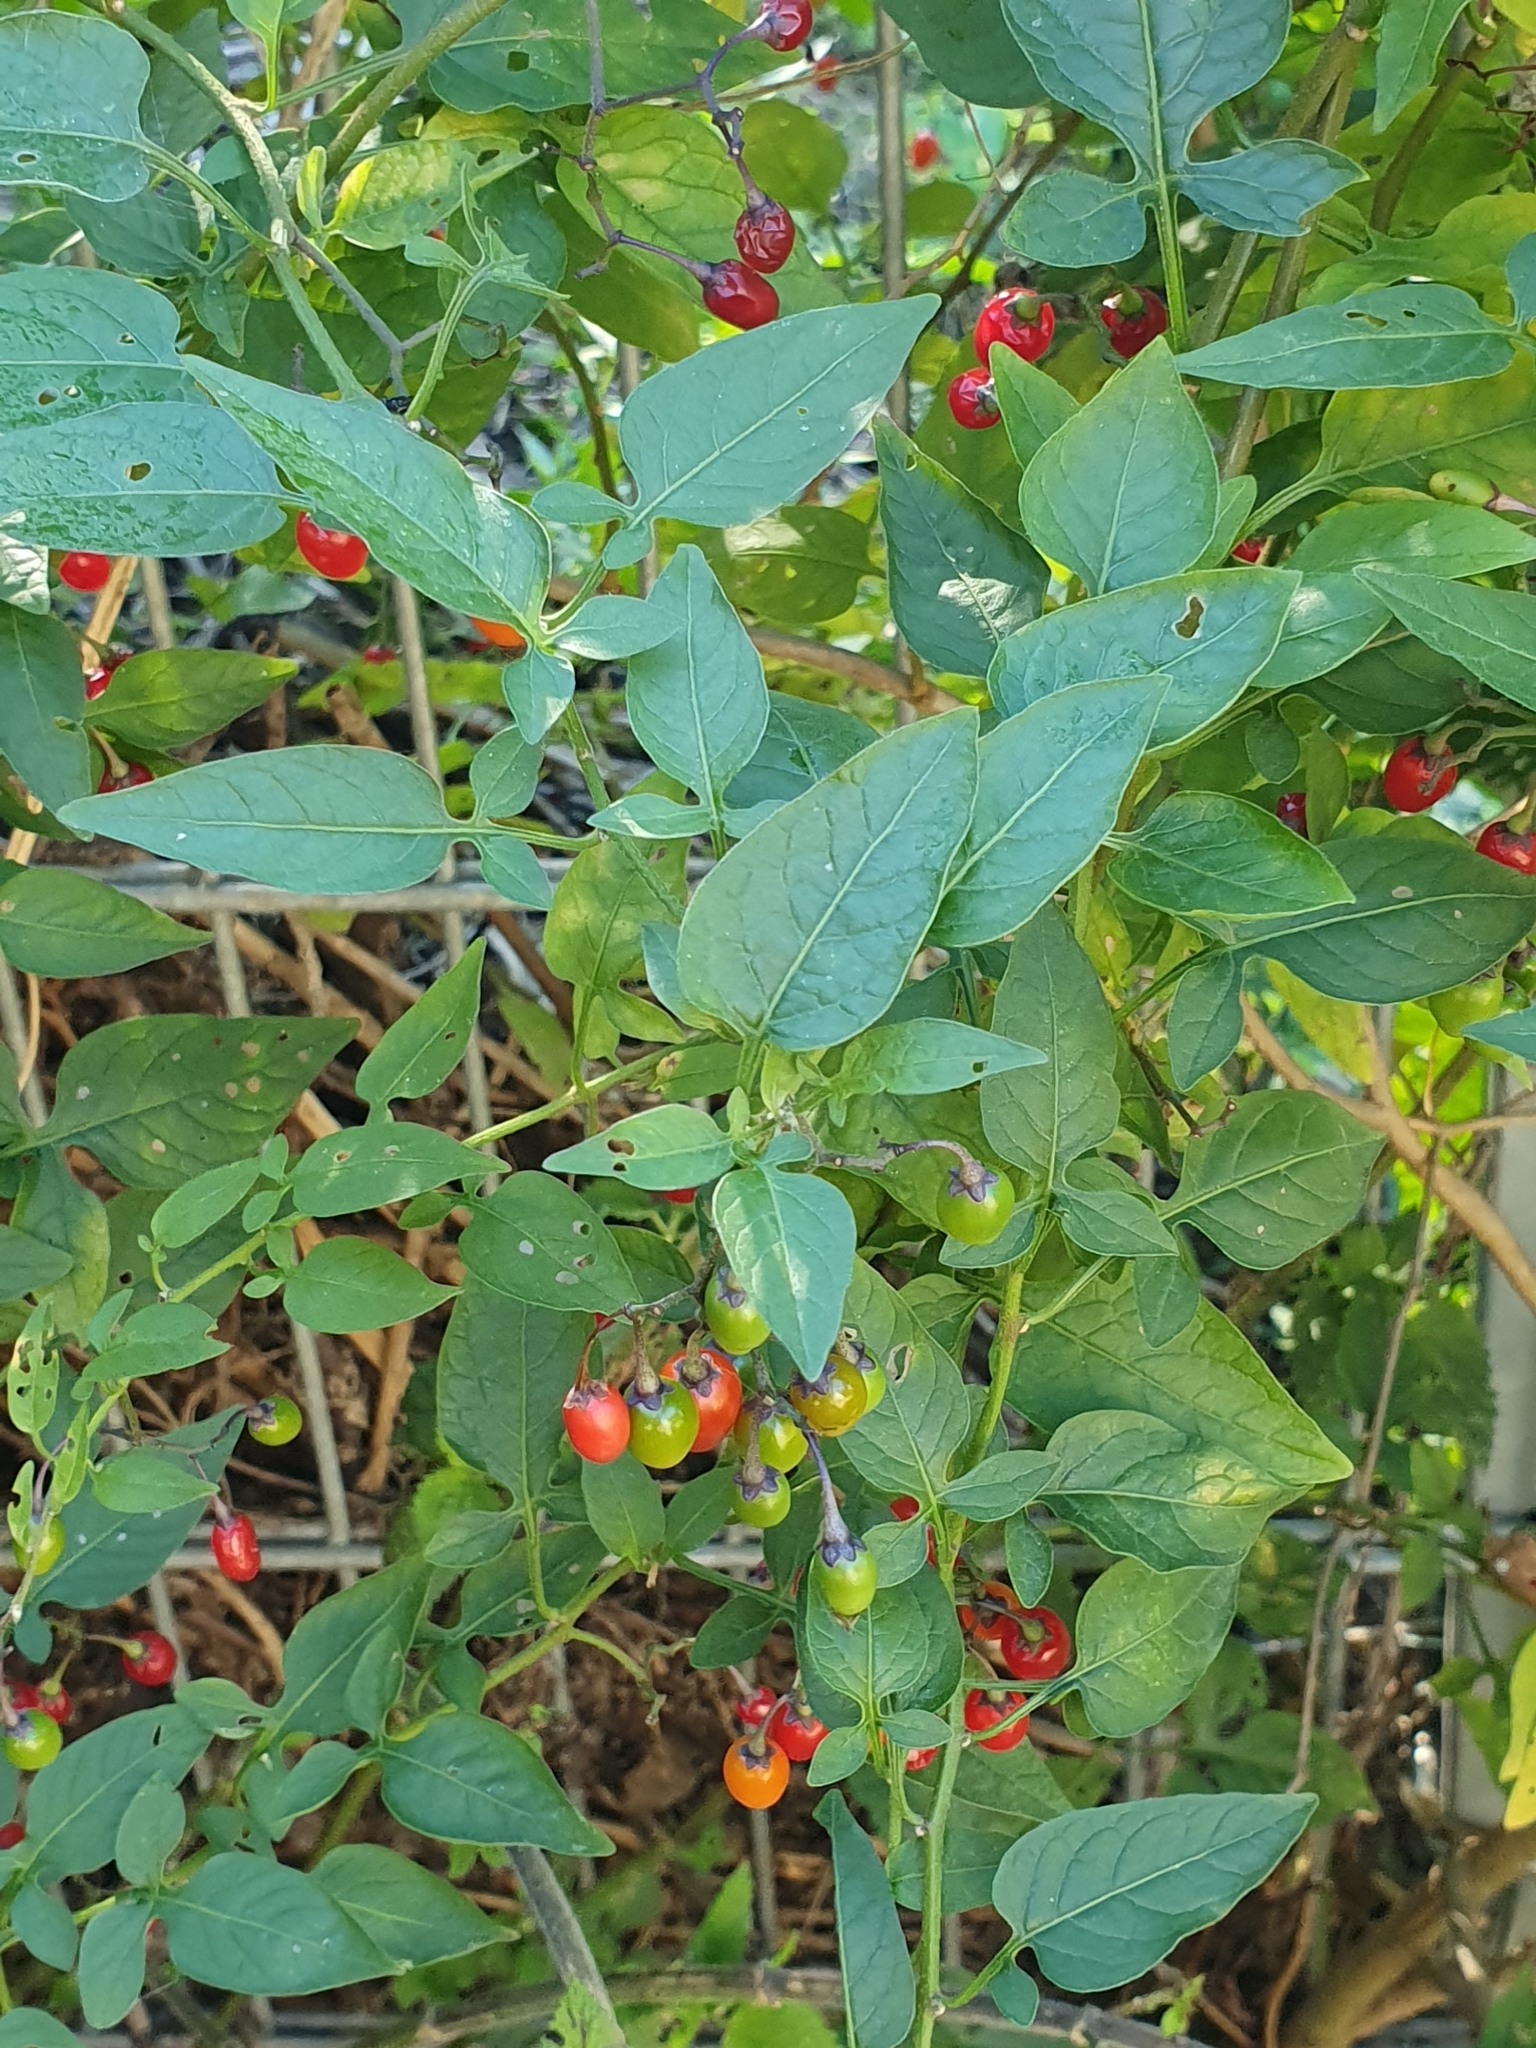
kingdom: Plantae
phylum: Tracheophyta
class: Magnoliopsida
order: Solanales
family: Solanaceae
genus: Solanum
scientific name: Solanum dulcamara
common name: Climbing nightshade
